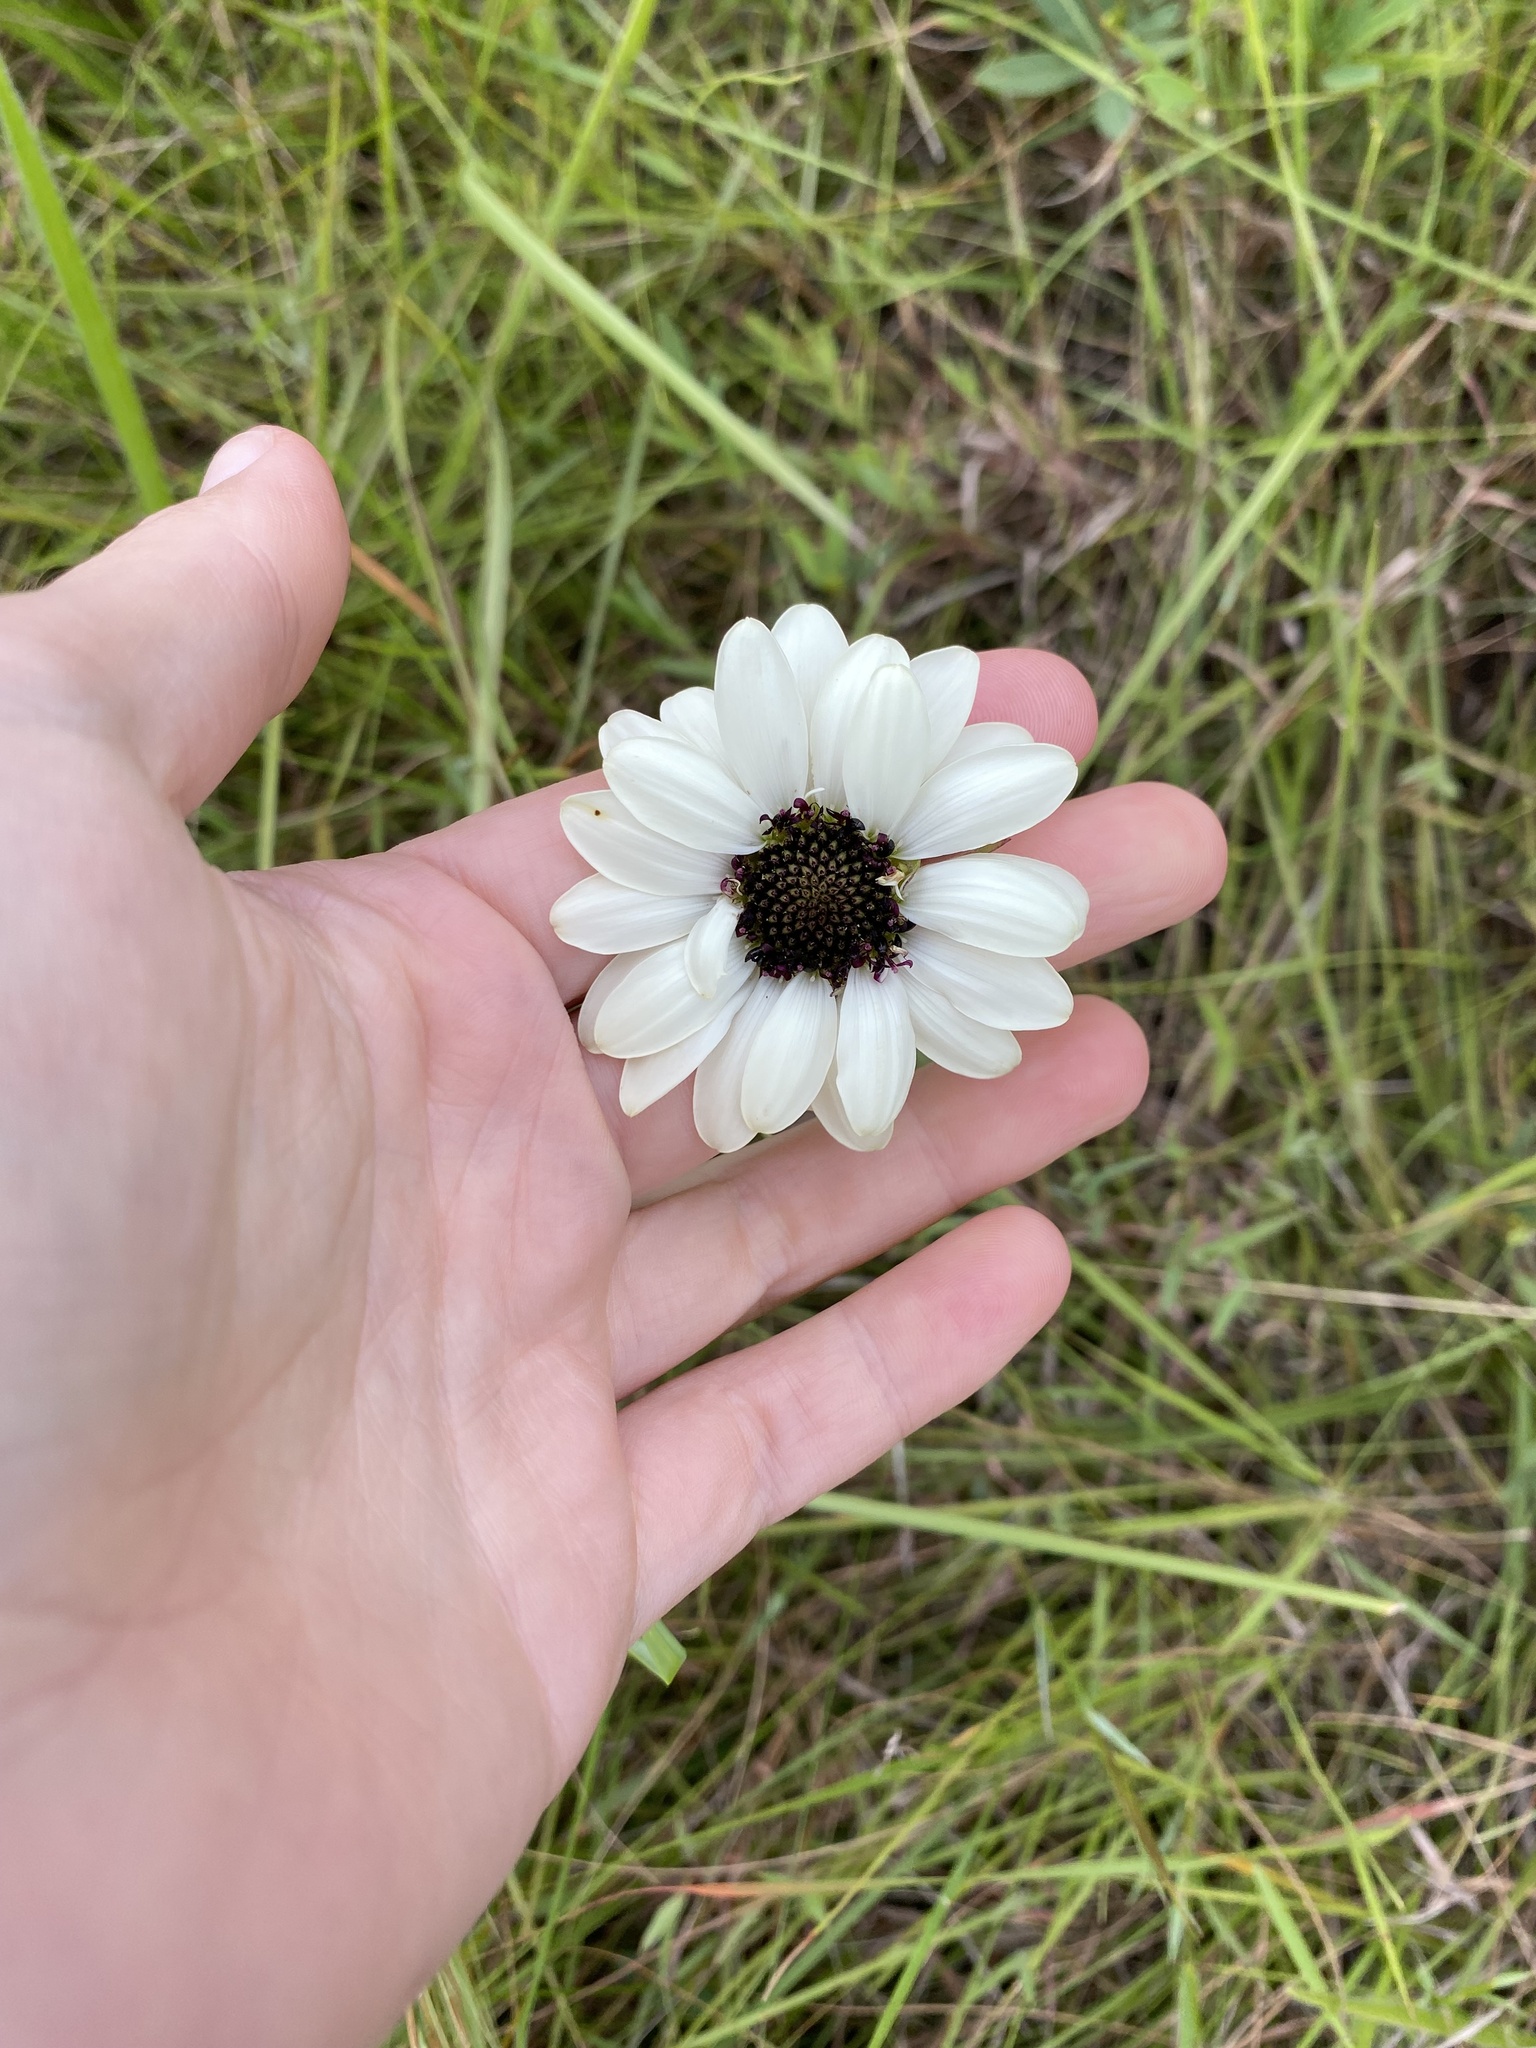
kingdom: Plantae
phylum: Tracheophyta
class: Magnoliopsida
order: Asterales
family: Asteraceae
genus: Callilepis
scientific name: Callilepis laureola
